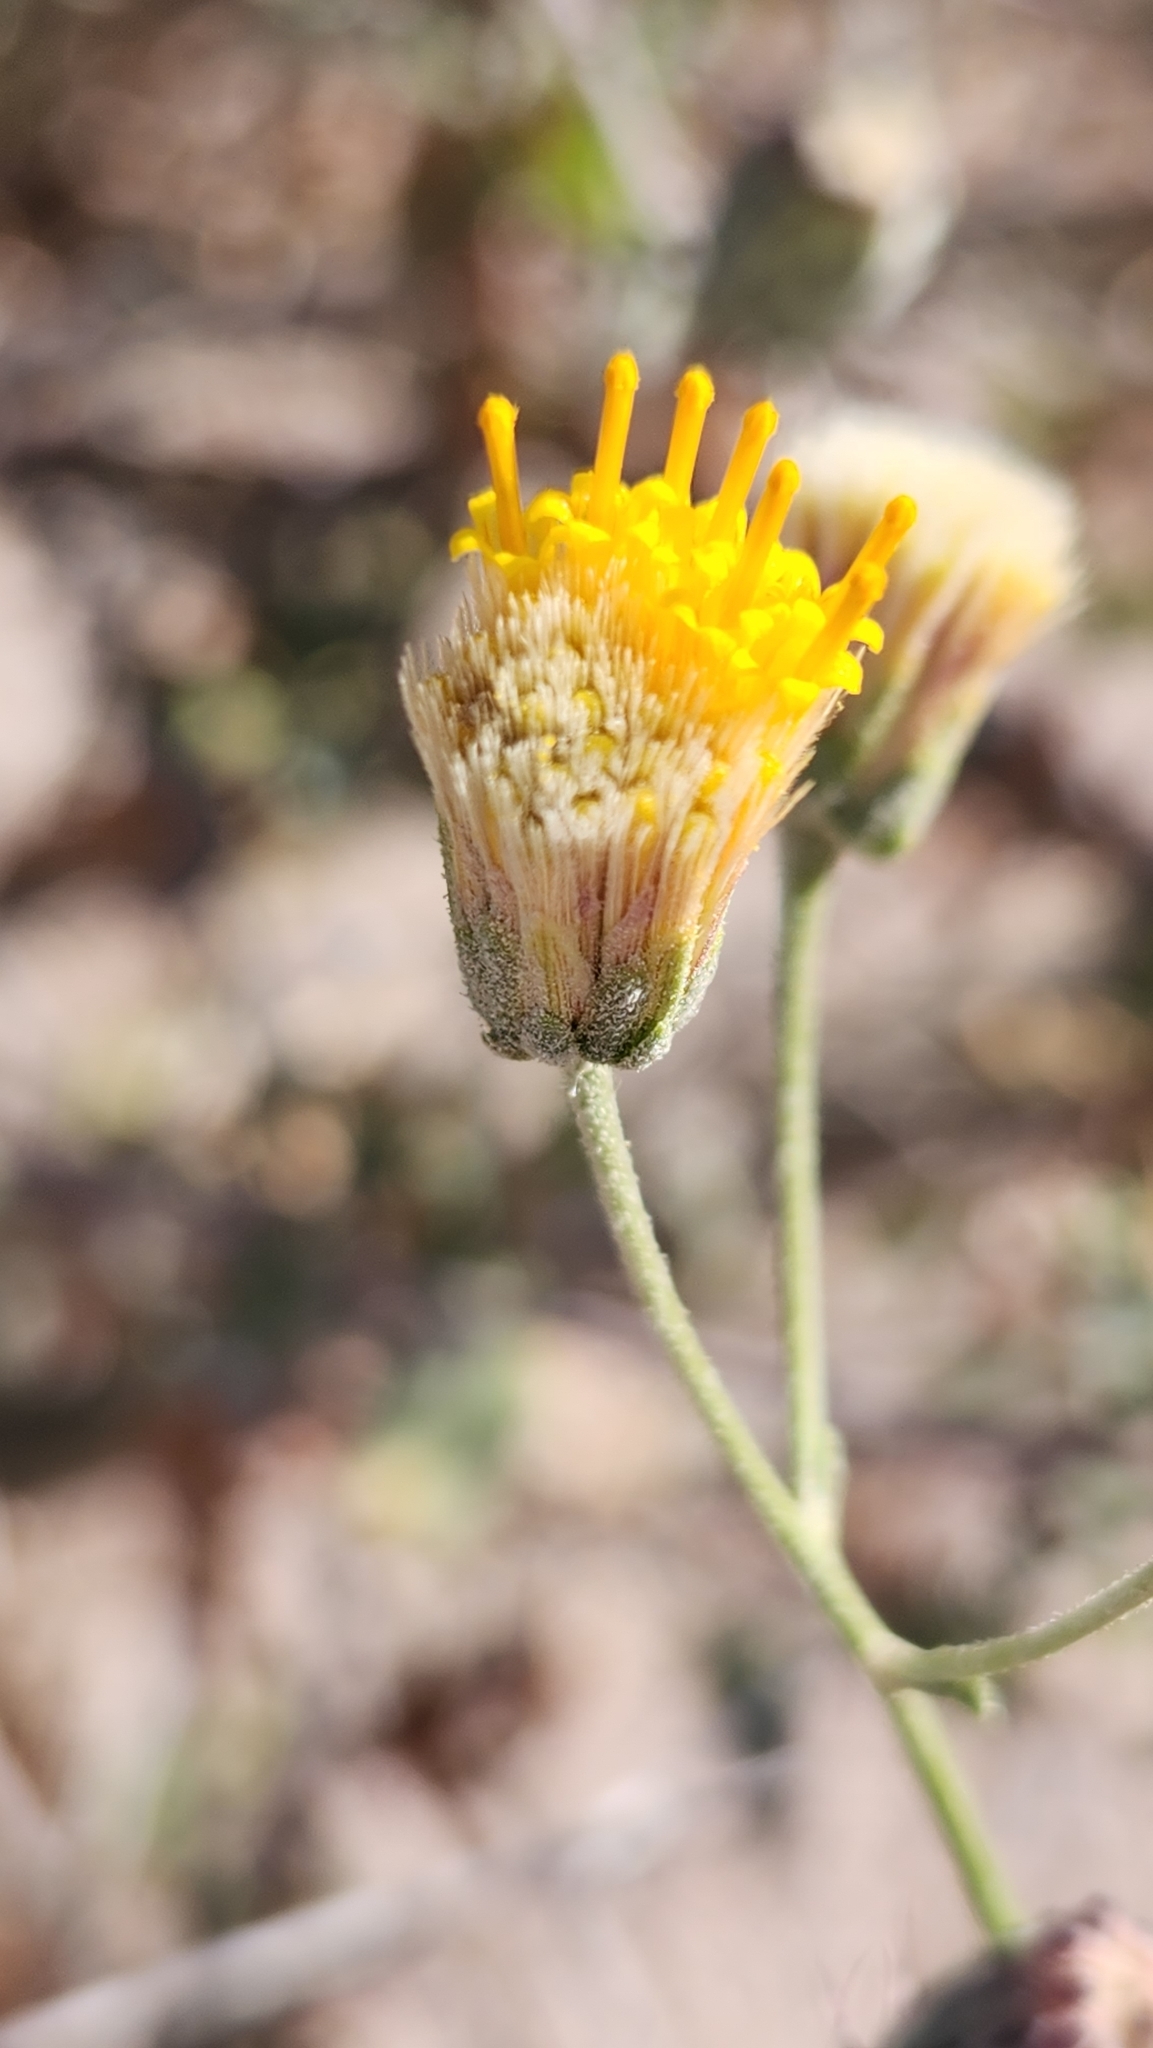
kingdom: Plantae
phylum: Tracheophyta
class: Magnoliopsida
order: Asterales
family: Asteraceae
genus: Bebbia
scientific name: Bebbia atriplicifolia
